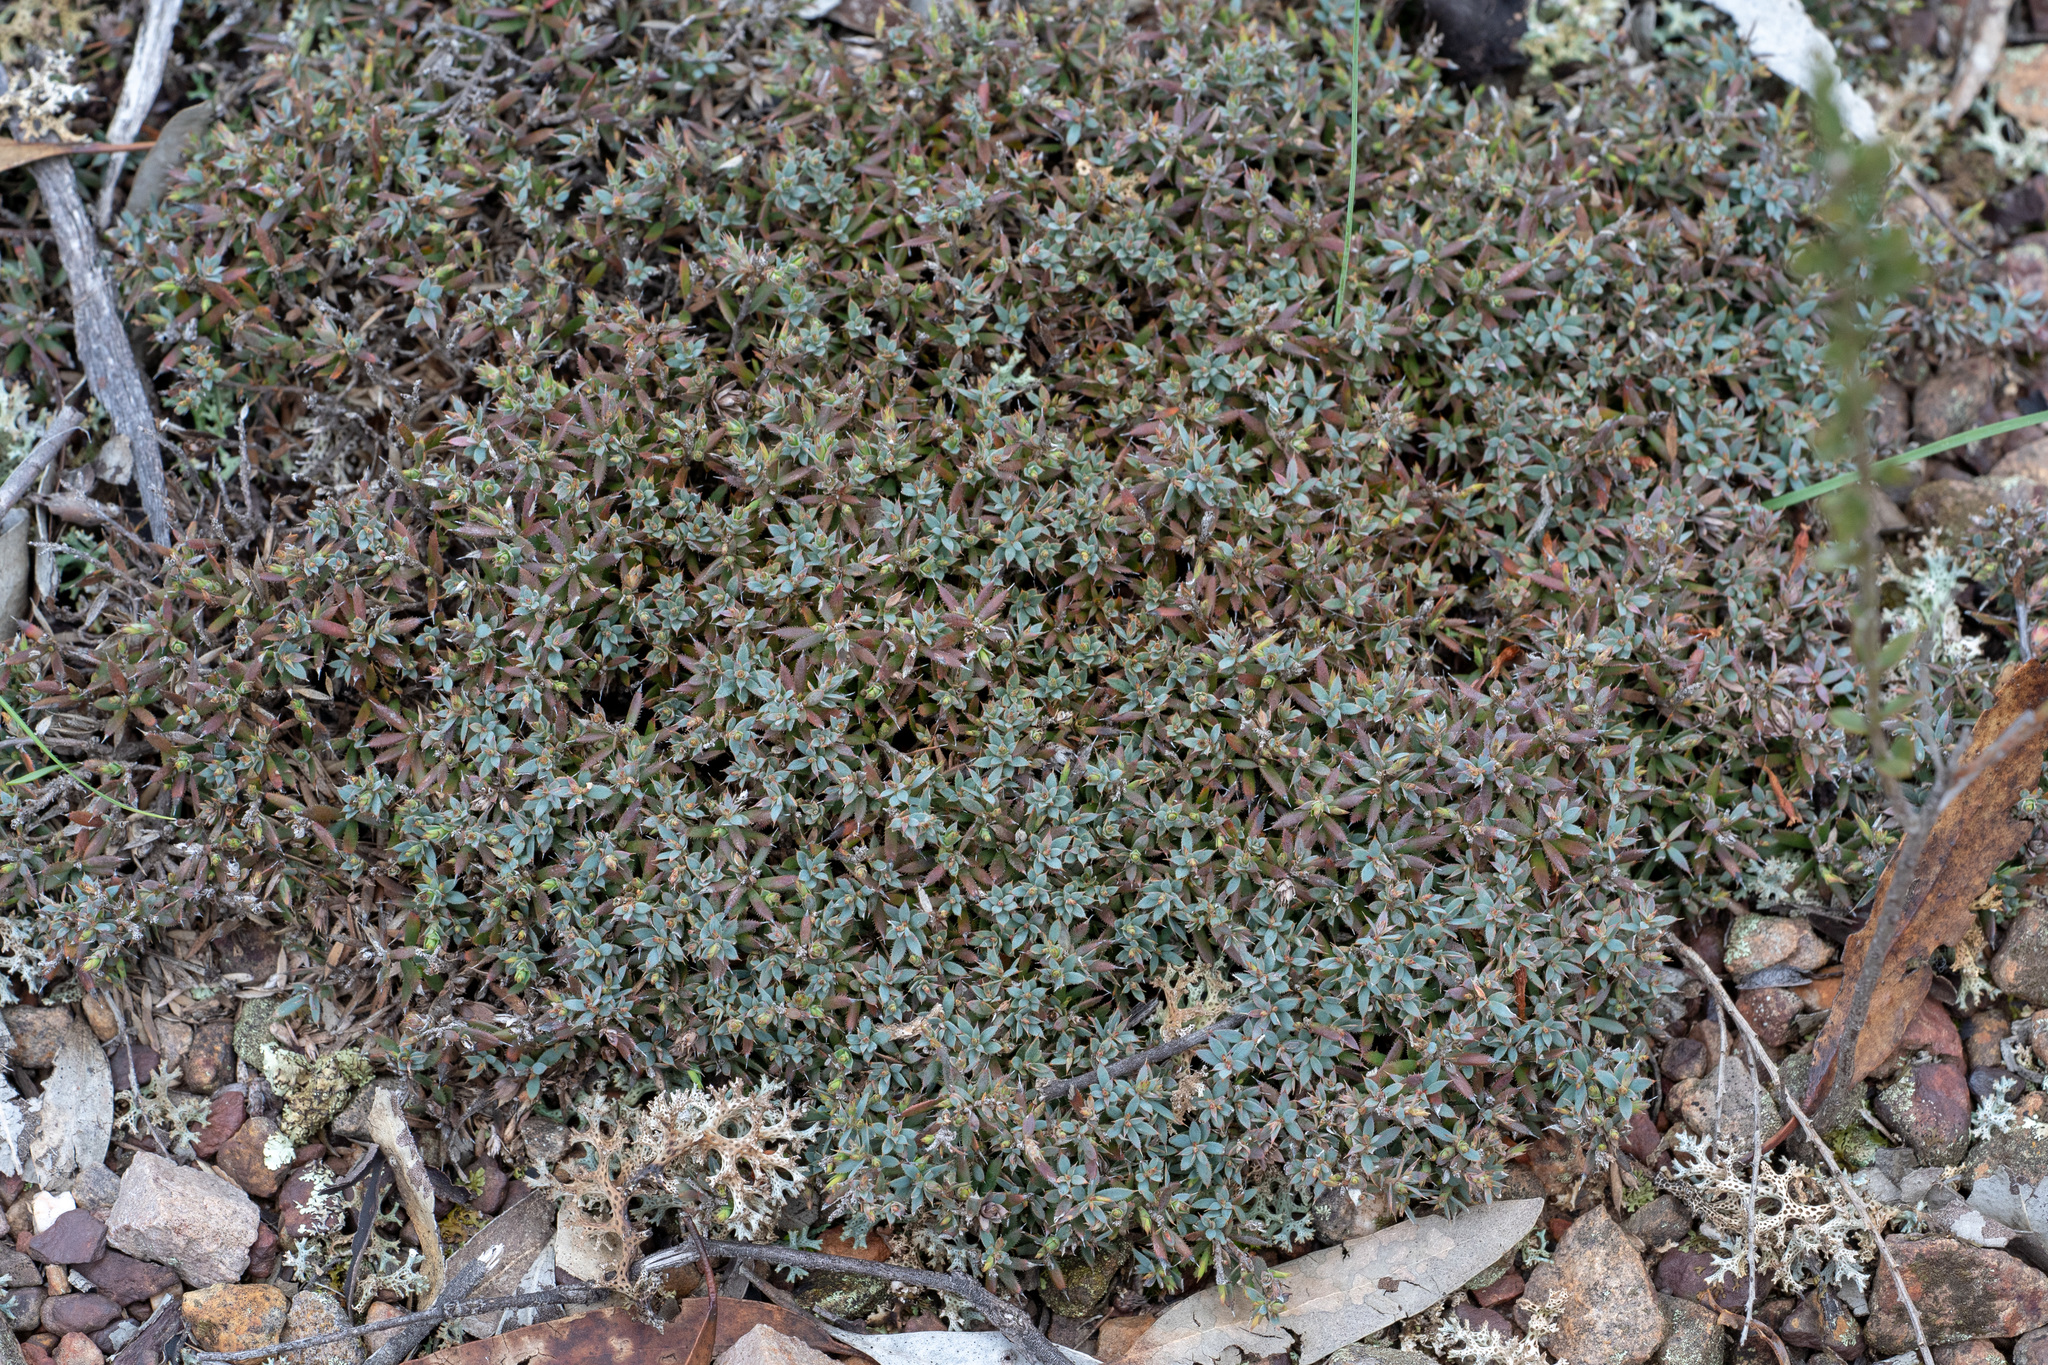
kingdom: Plantae
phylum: Tracheophyta
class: Magnoliopsida
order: Ericales
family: Ericaceae
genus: Styphelia
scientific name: Styphelia humifusa
